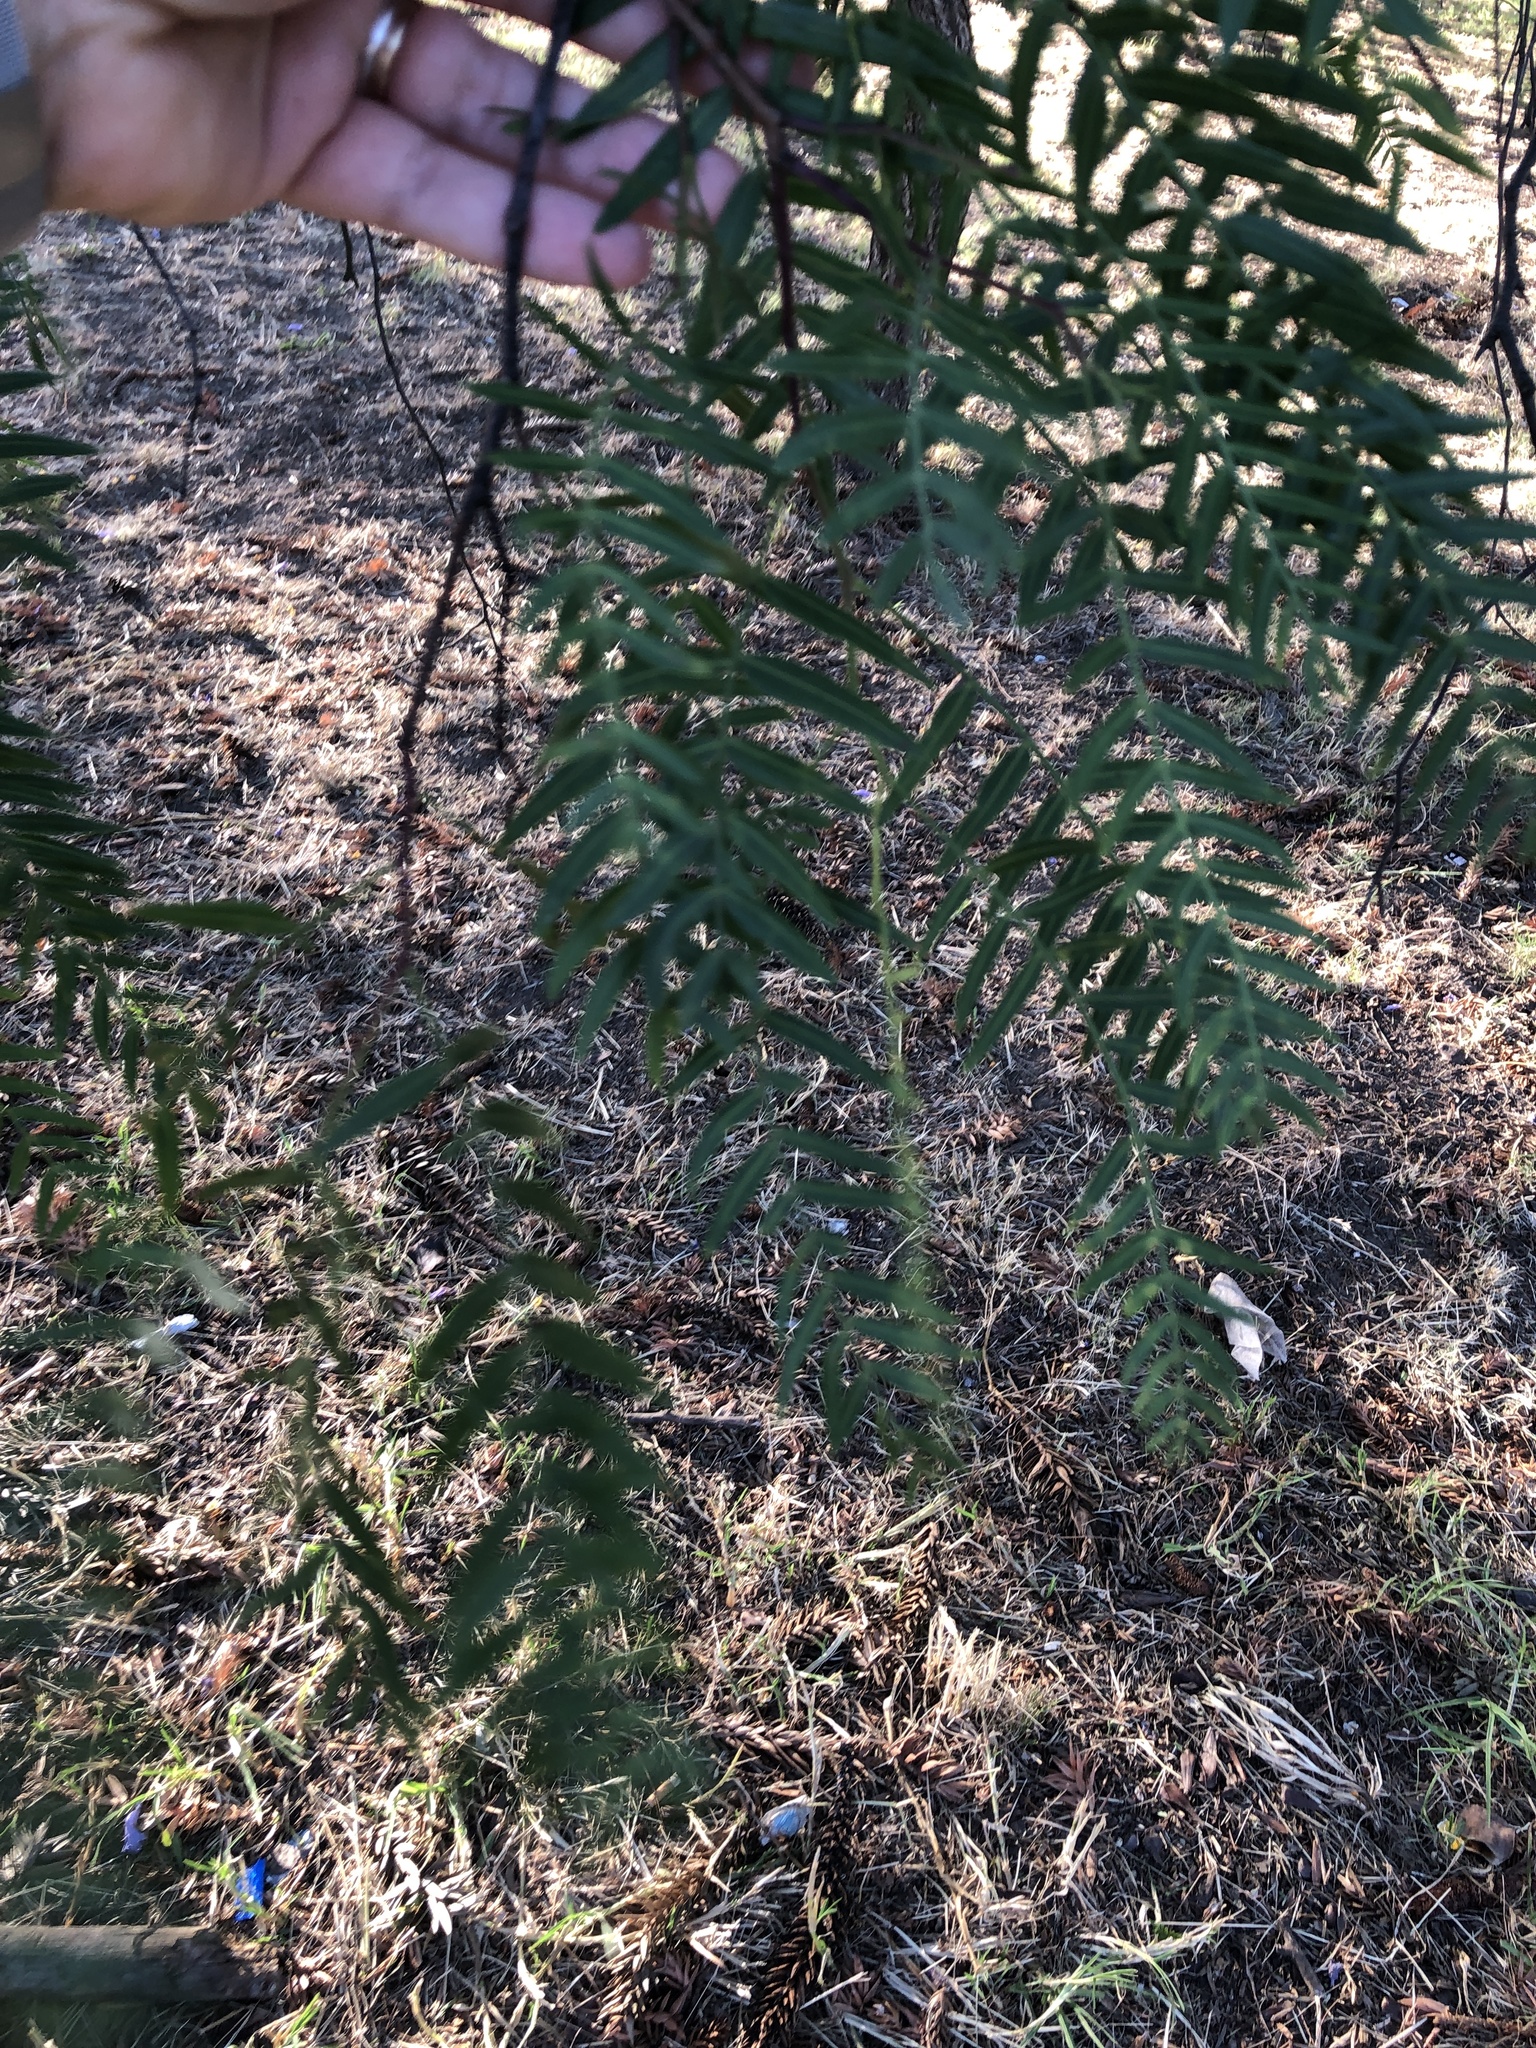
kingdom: Plantae
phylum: Tracheophyta
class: Magnoliopsida
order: Sapindales
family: Anacardiaceae
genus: Schinus
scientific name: Schinus molle
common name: Peruvian peppertree
